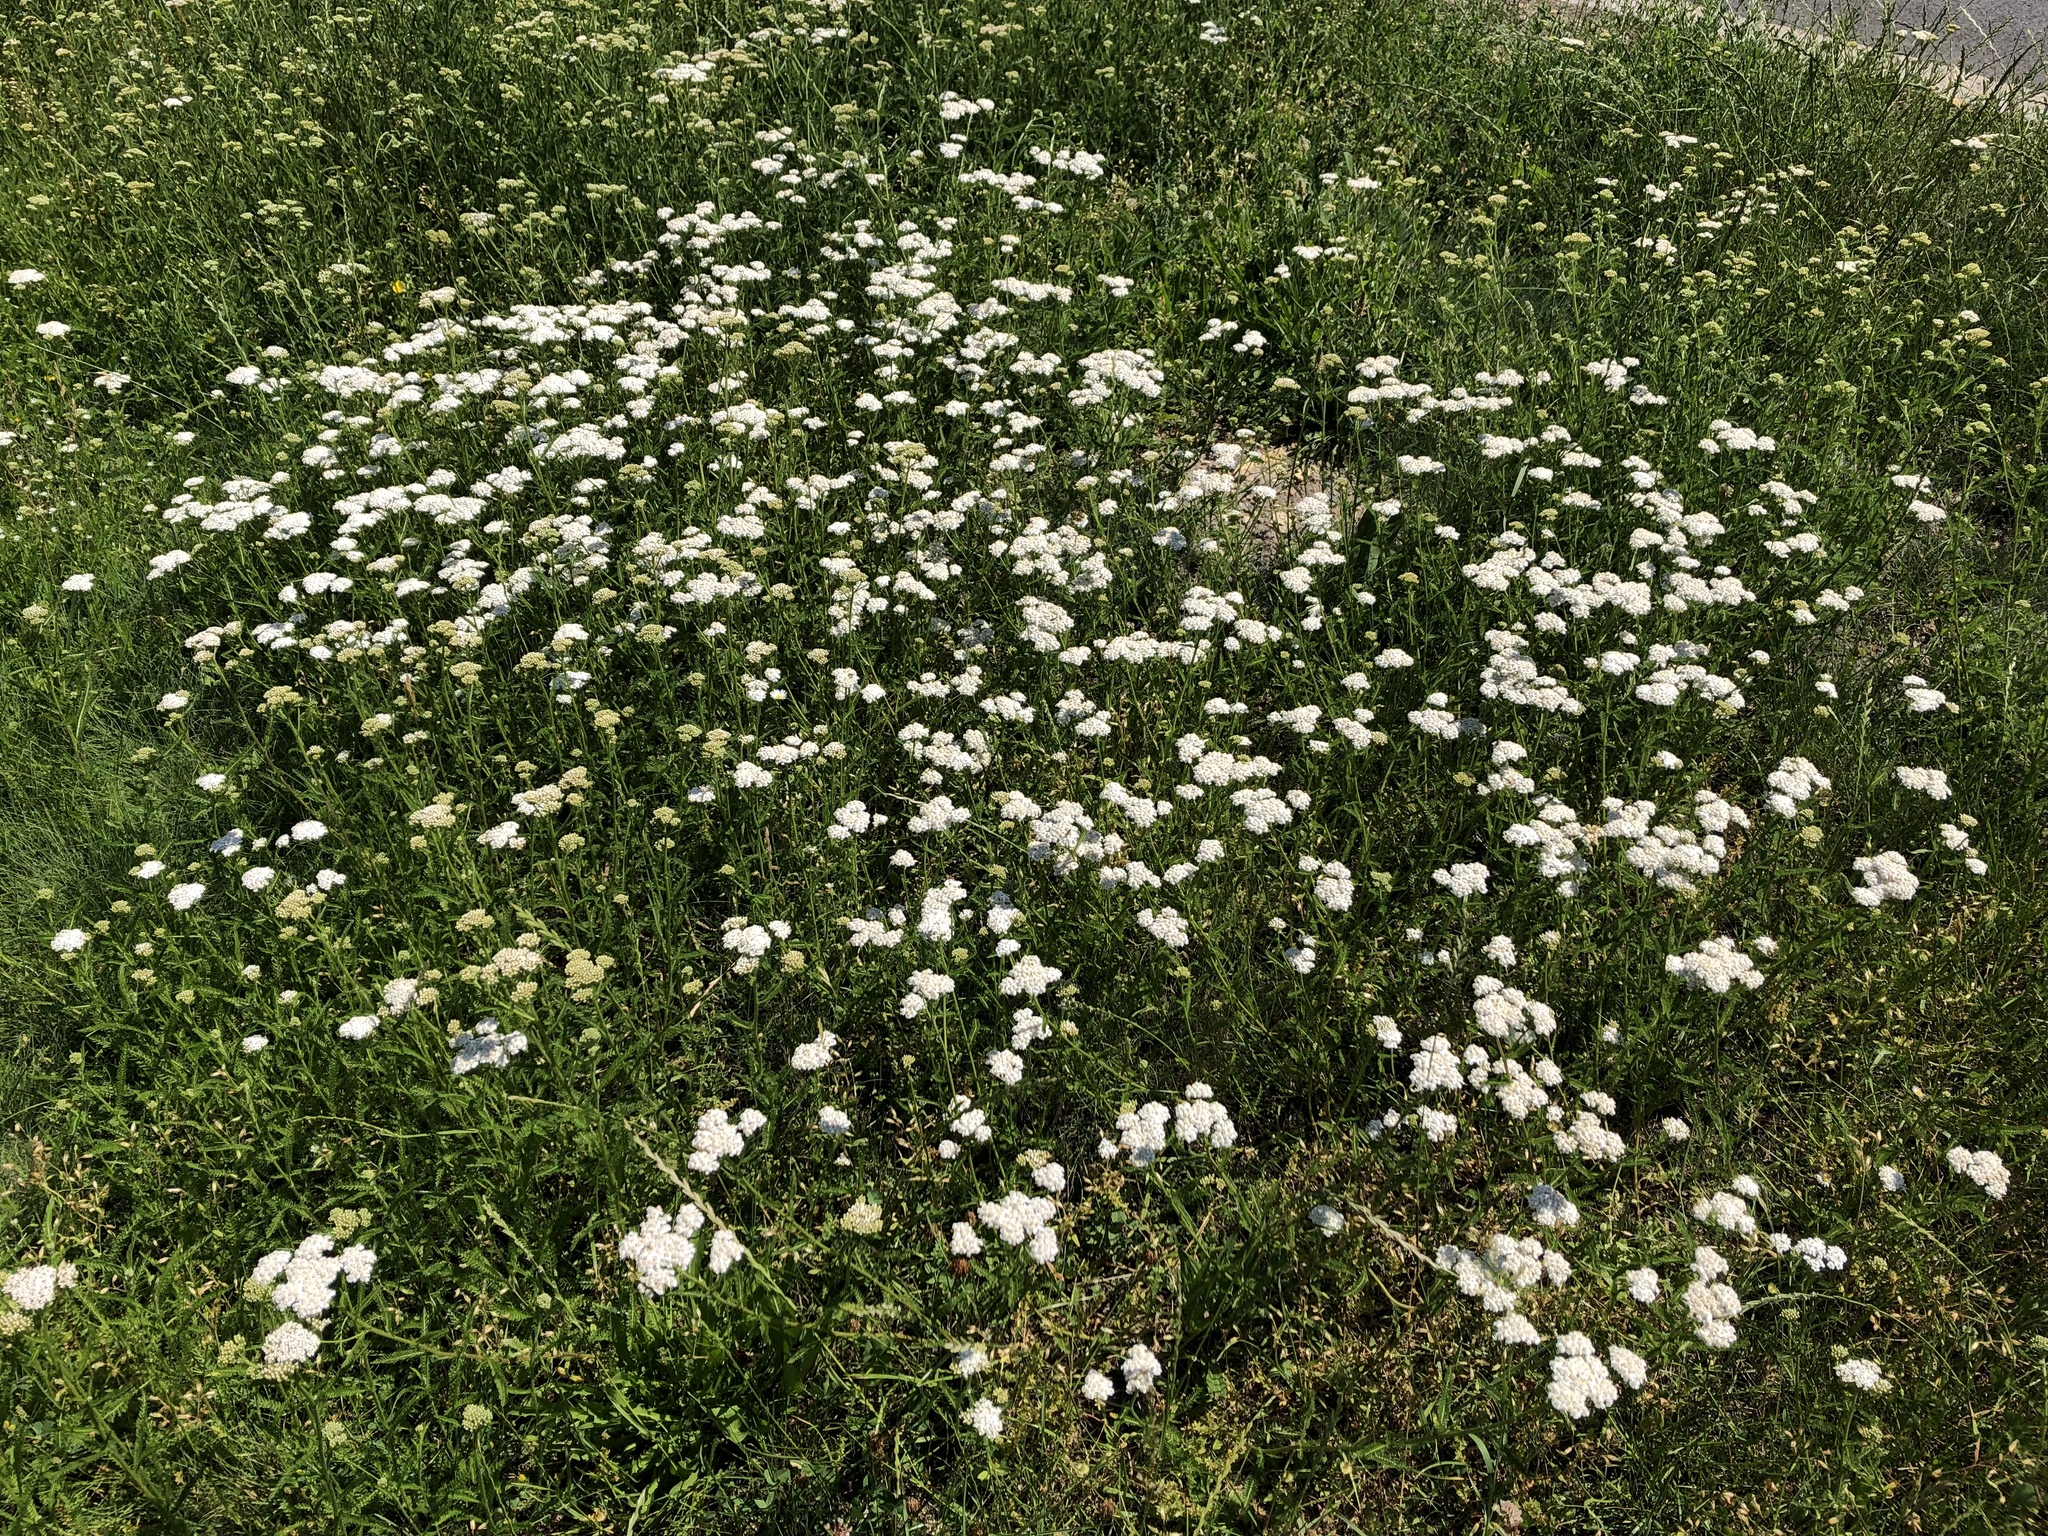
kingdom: Plantae
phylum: Tracheophyta
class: Magnoliopsida
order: Asterales
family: Asteraceae
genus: Achillea
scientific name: Achillea millefolium
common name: Yarrow
